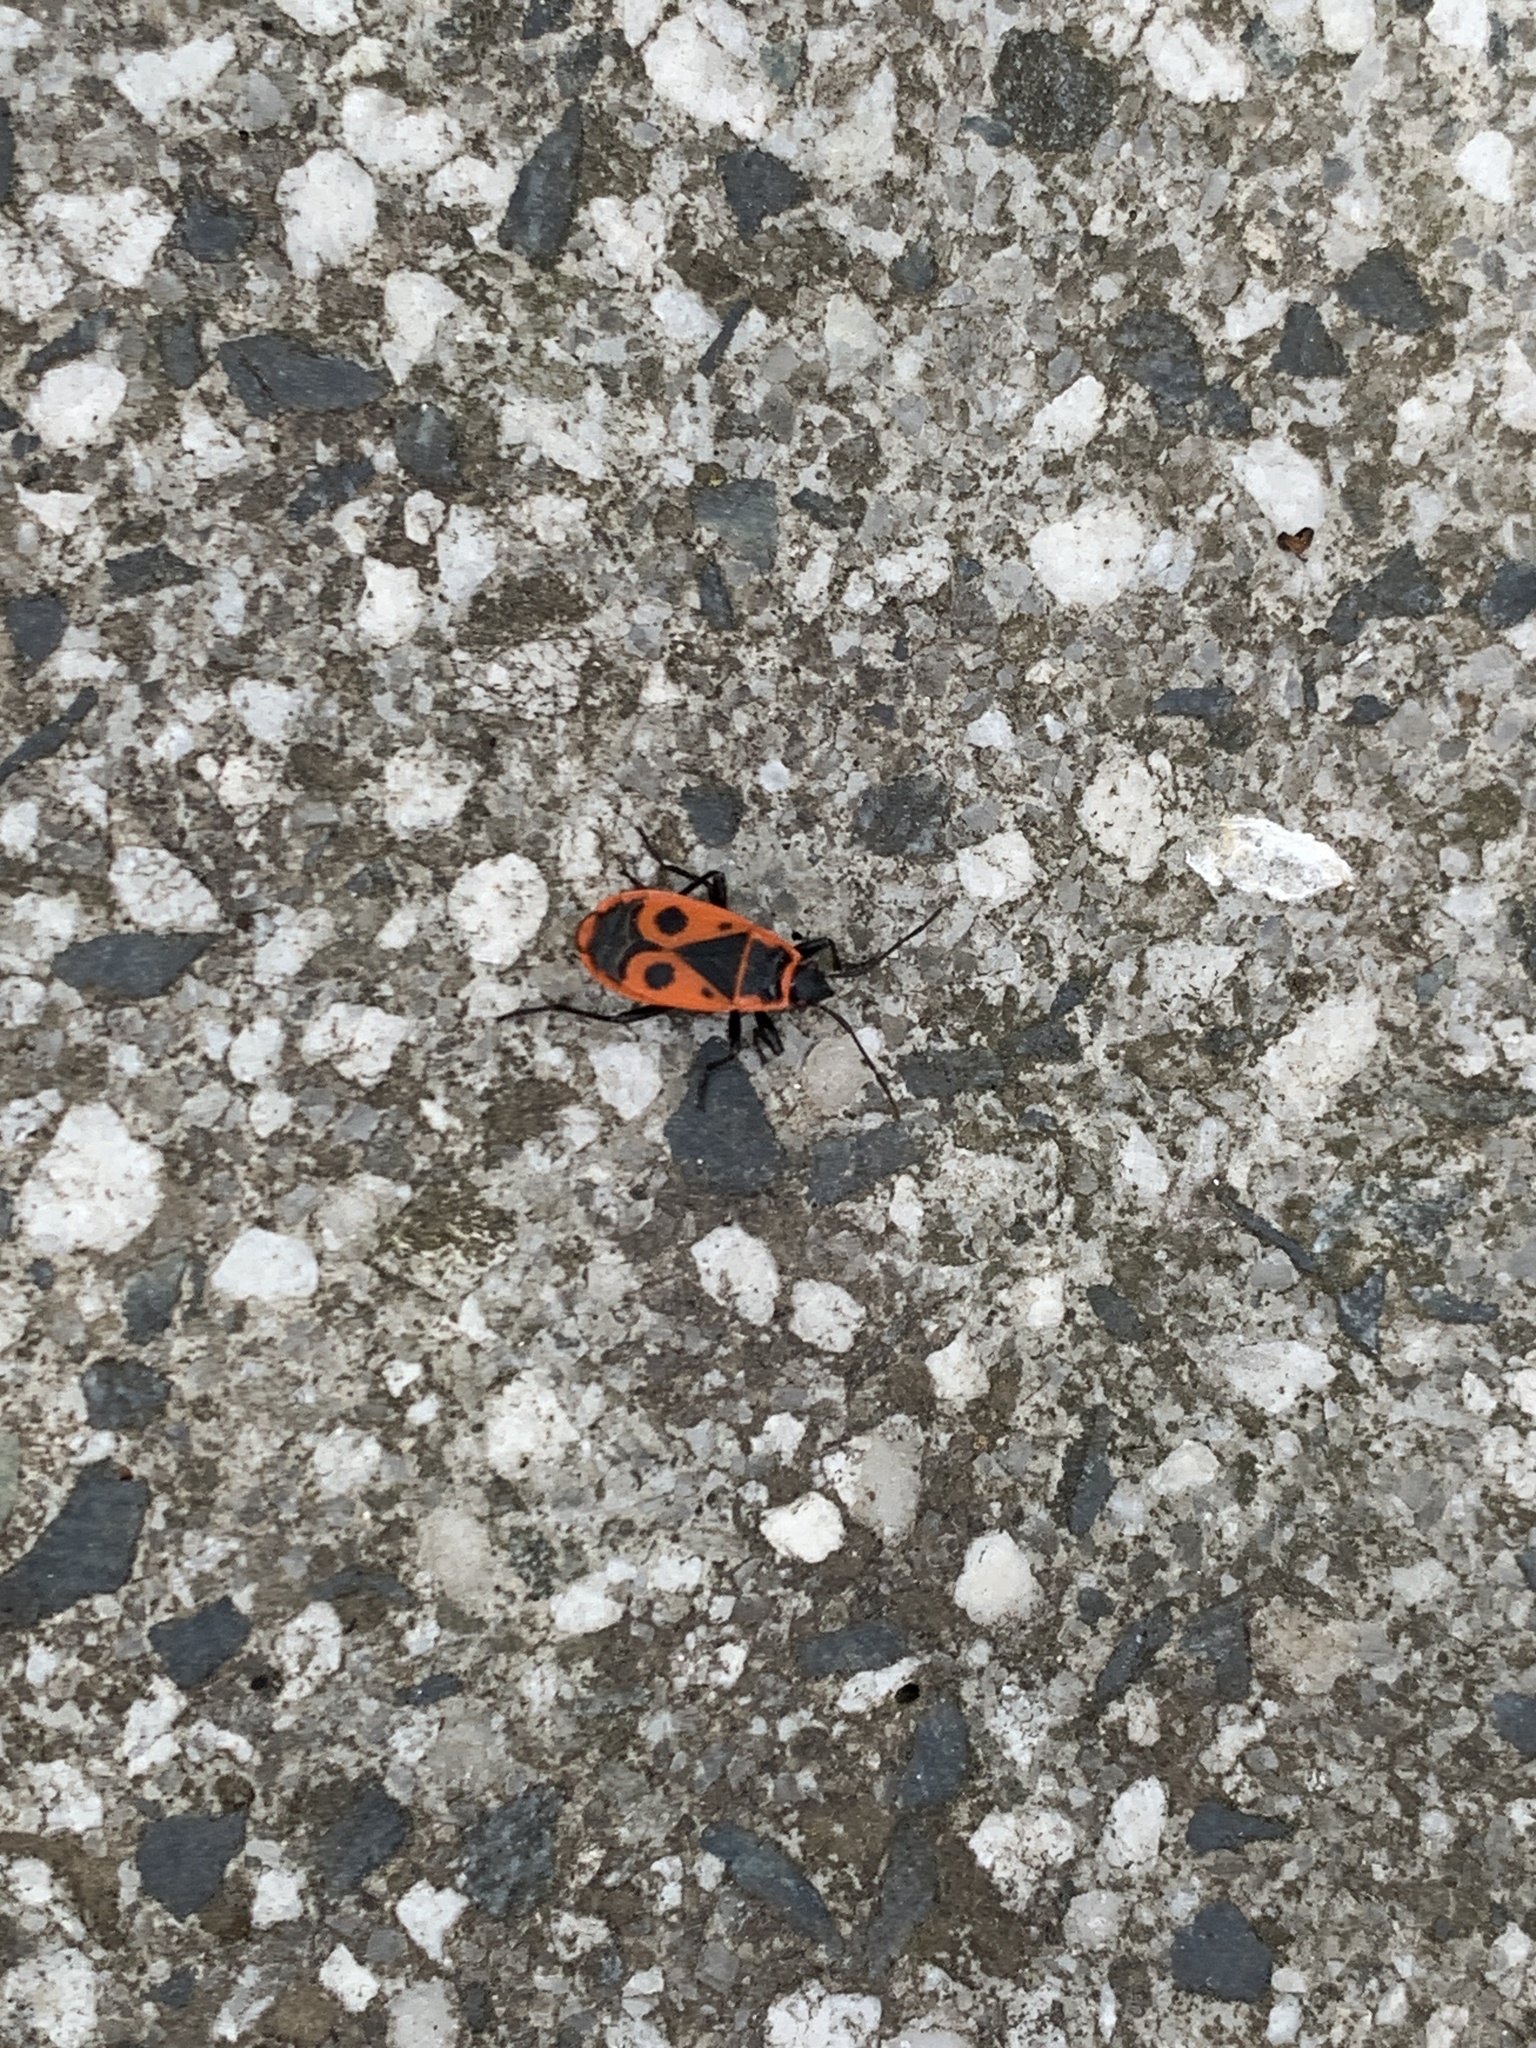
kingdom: Animalia
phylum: Arthropoda
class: Insecta
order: Hemiptera
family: Pyrrhocoridae
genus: Pyrrhocoris
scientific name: Pyrrhocoris apterus
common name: Firebug
